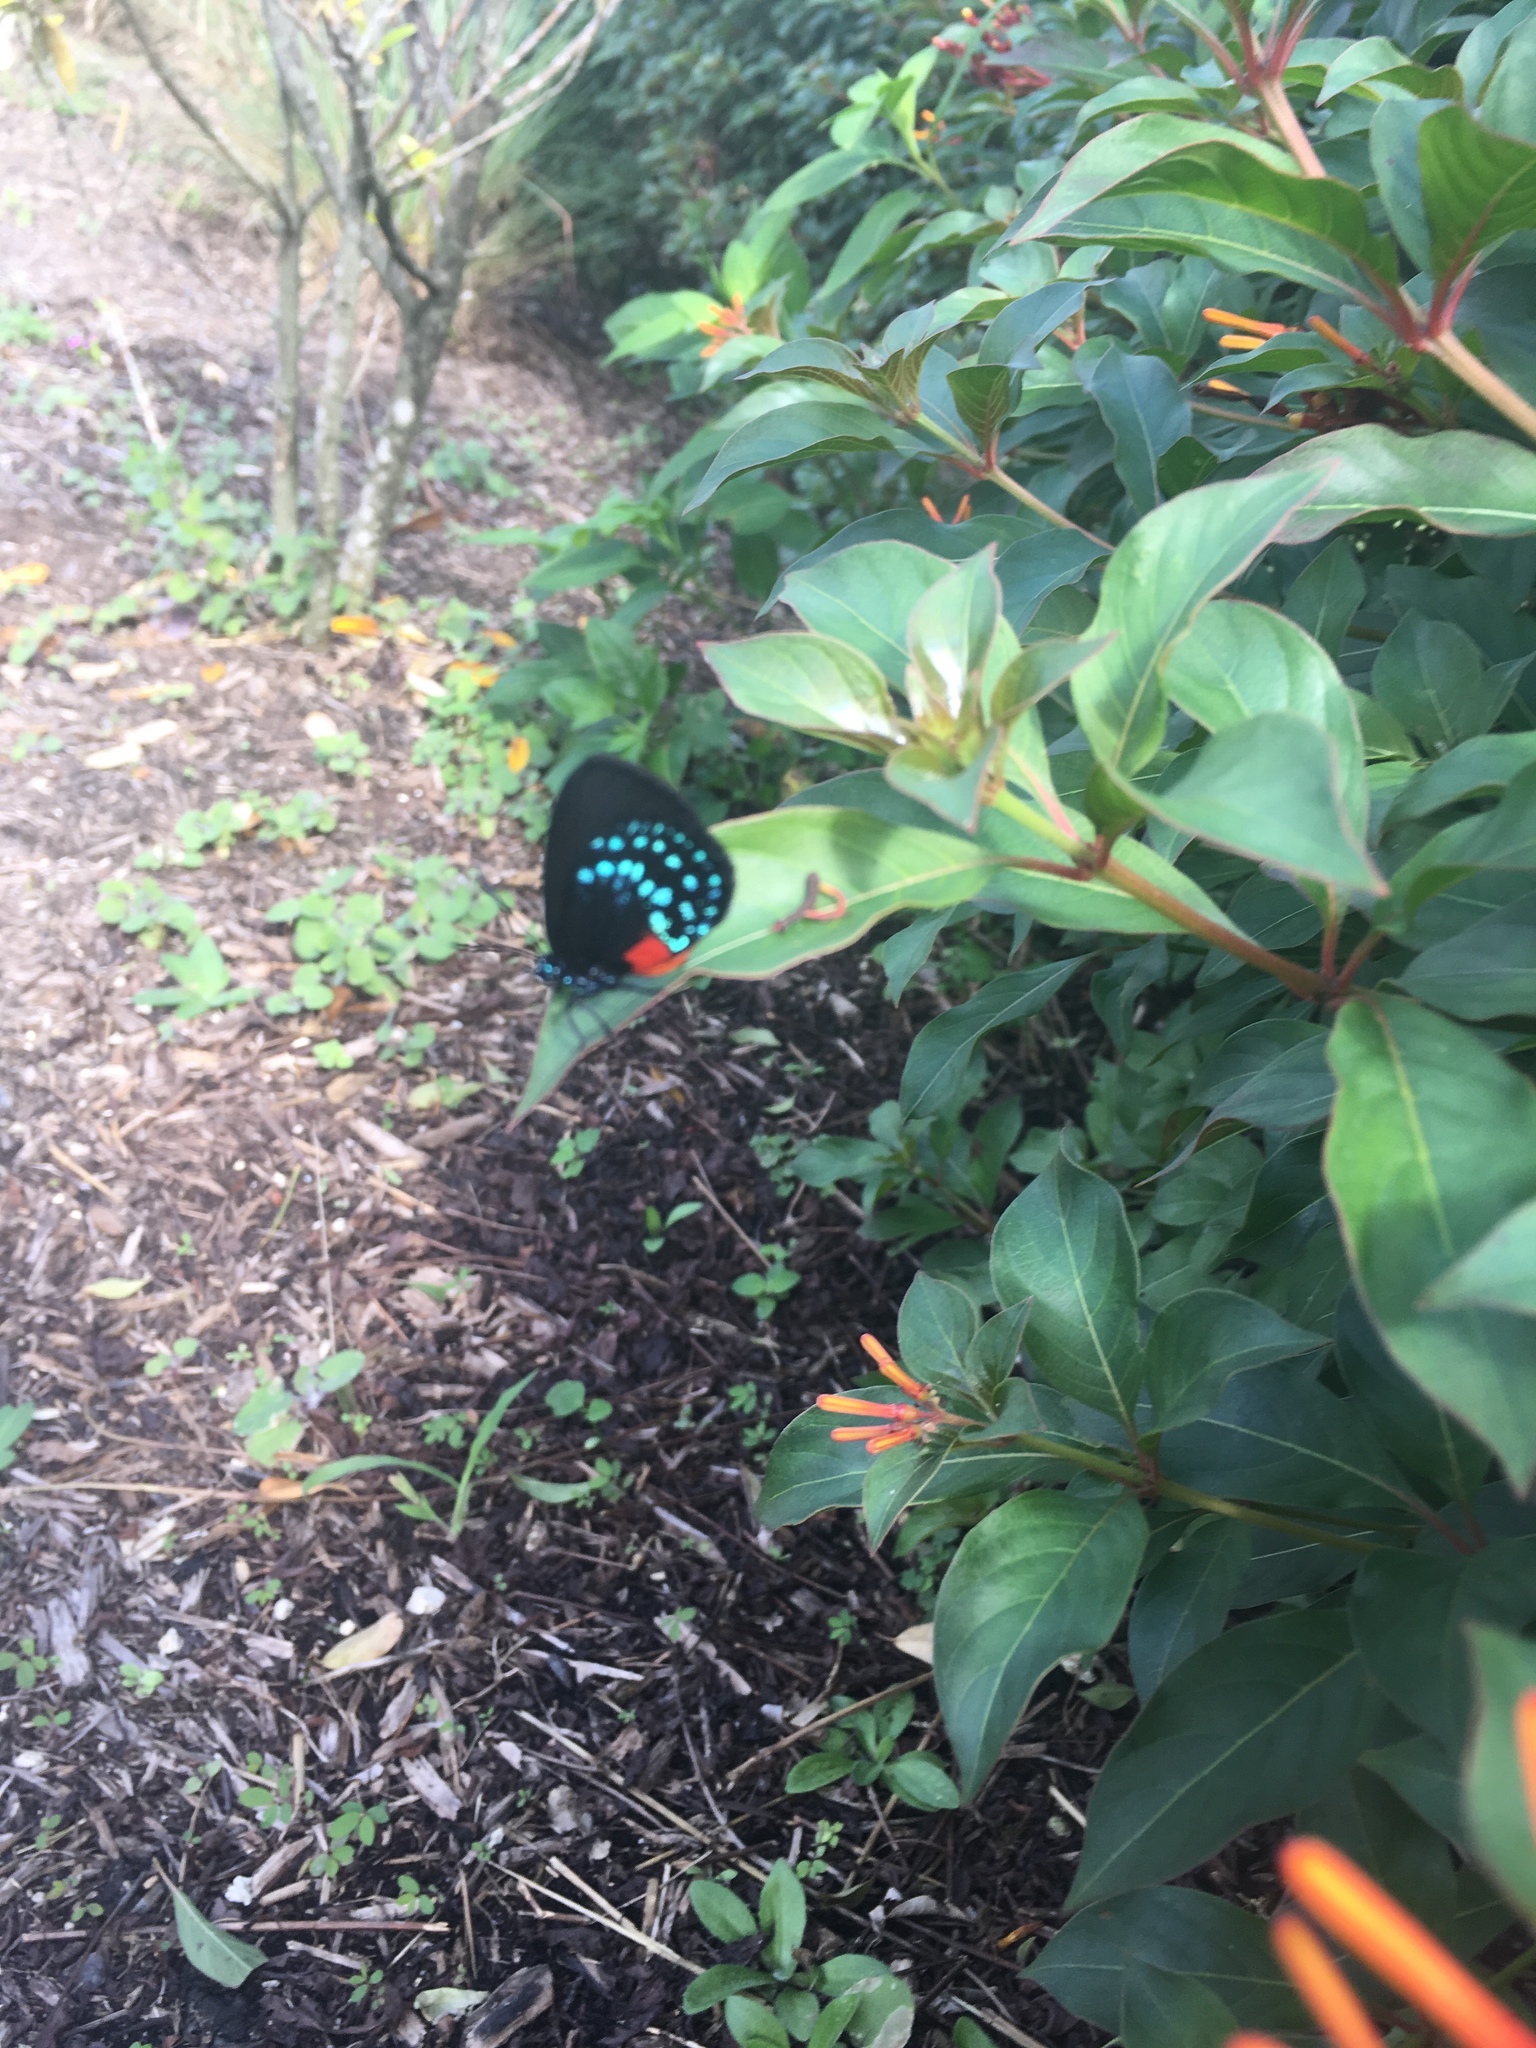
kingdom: Animalia
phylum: Arthropoda
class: Insecta
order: Lepidoptera
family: Lycaenidae
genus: Eumaeus
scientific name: Eumaeus atala
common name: Atala
